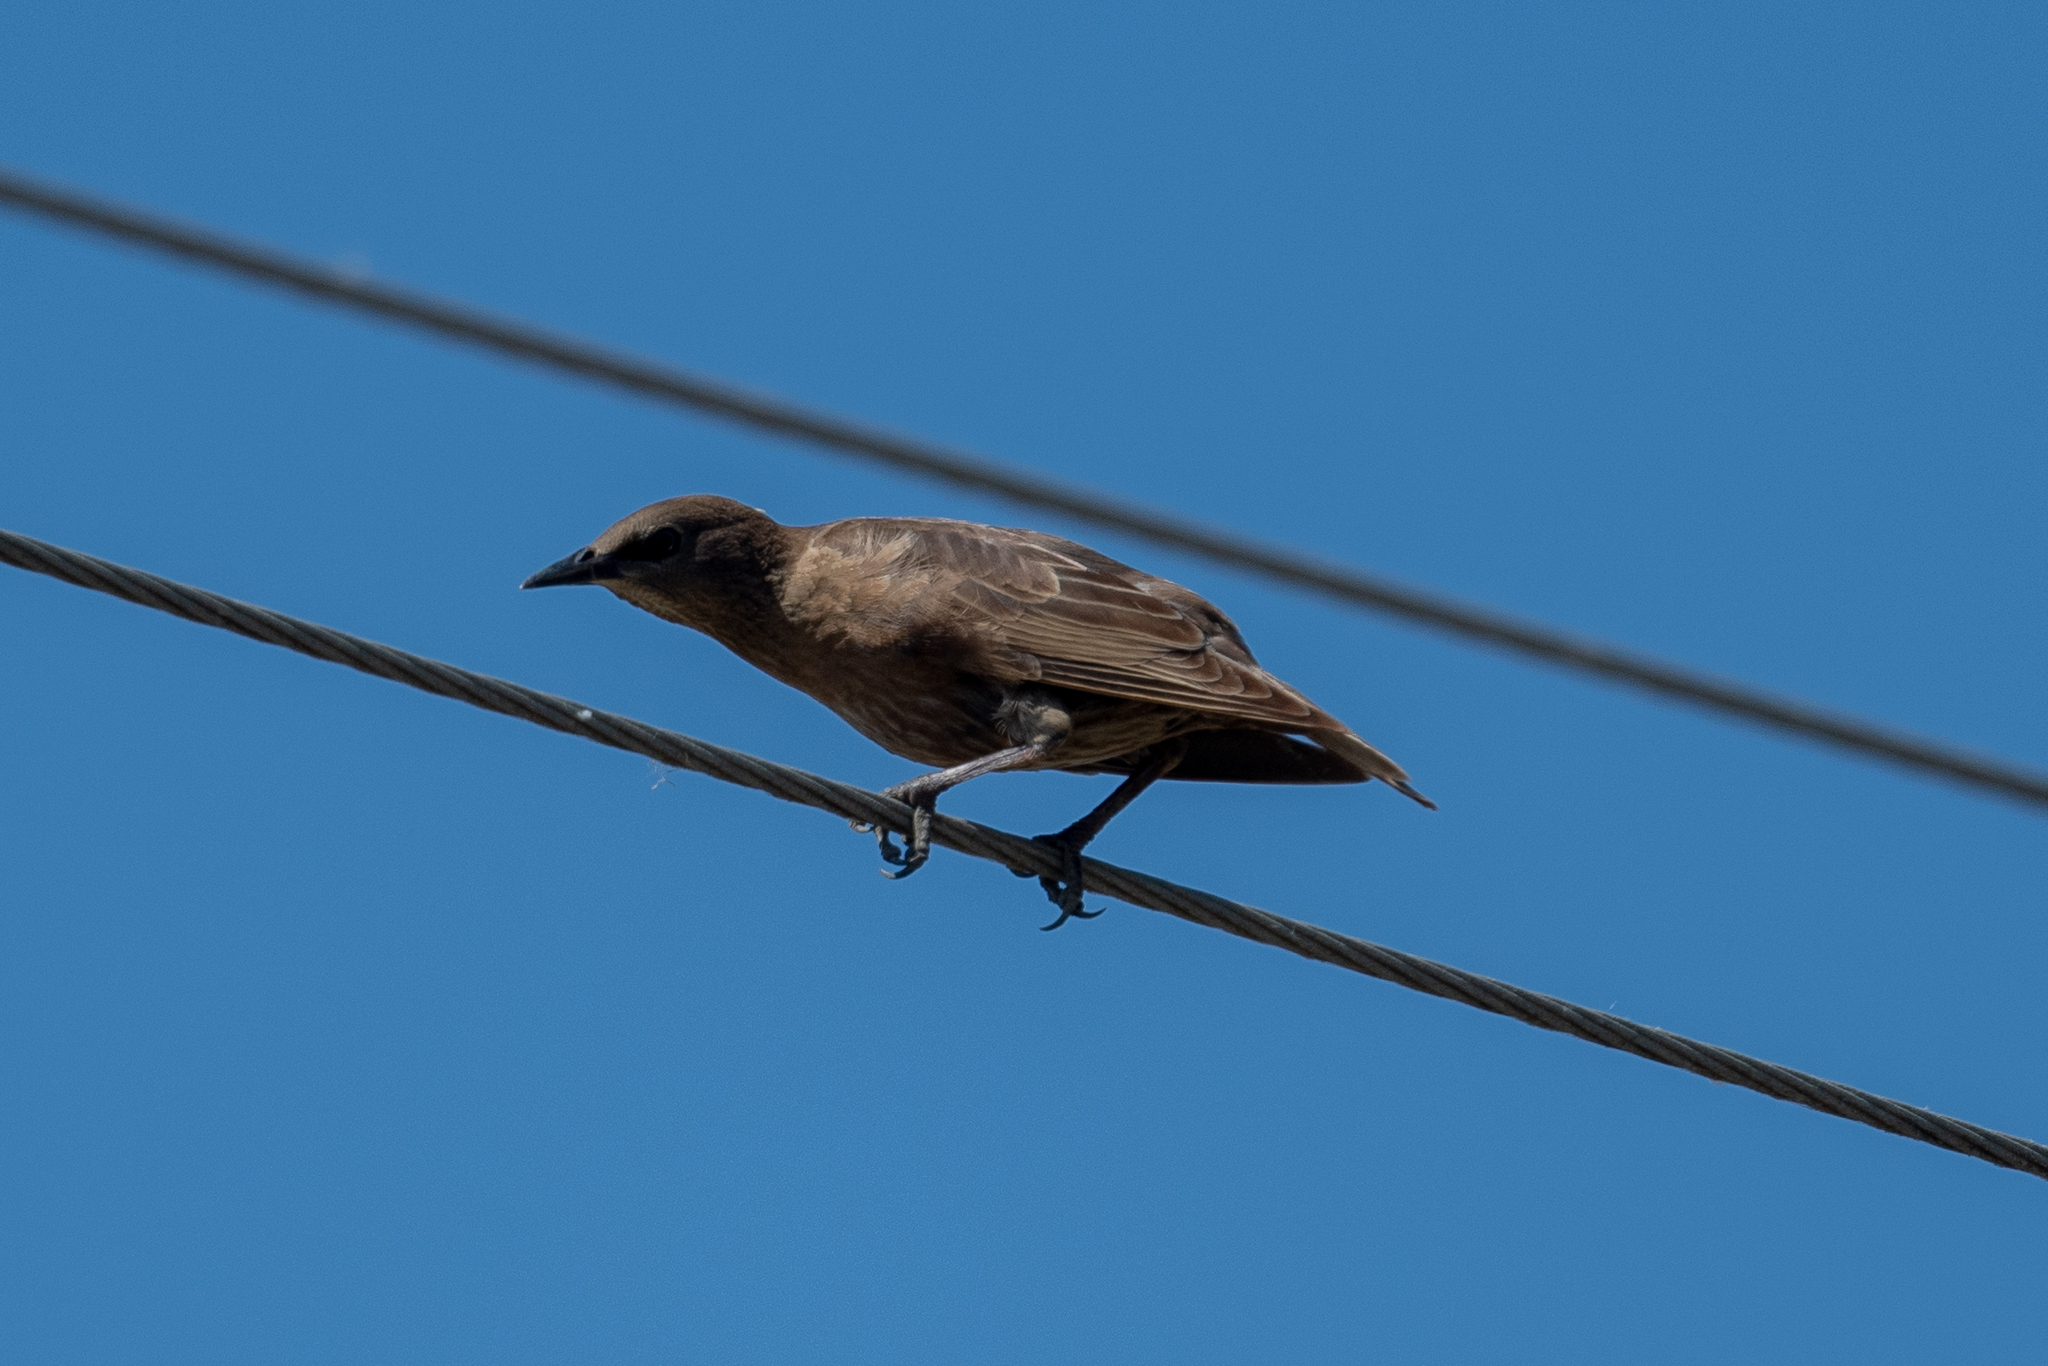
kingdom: Animalia
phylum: Chordata
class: Aves
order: Passeriformes
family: Sturnidae
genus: Sturnus
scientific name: Sturnus vulgaris
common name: Common starling
